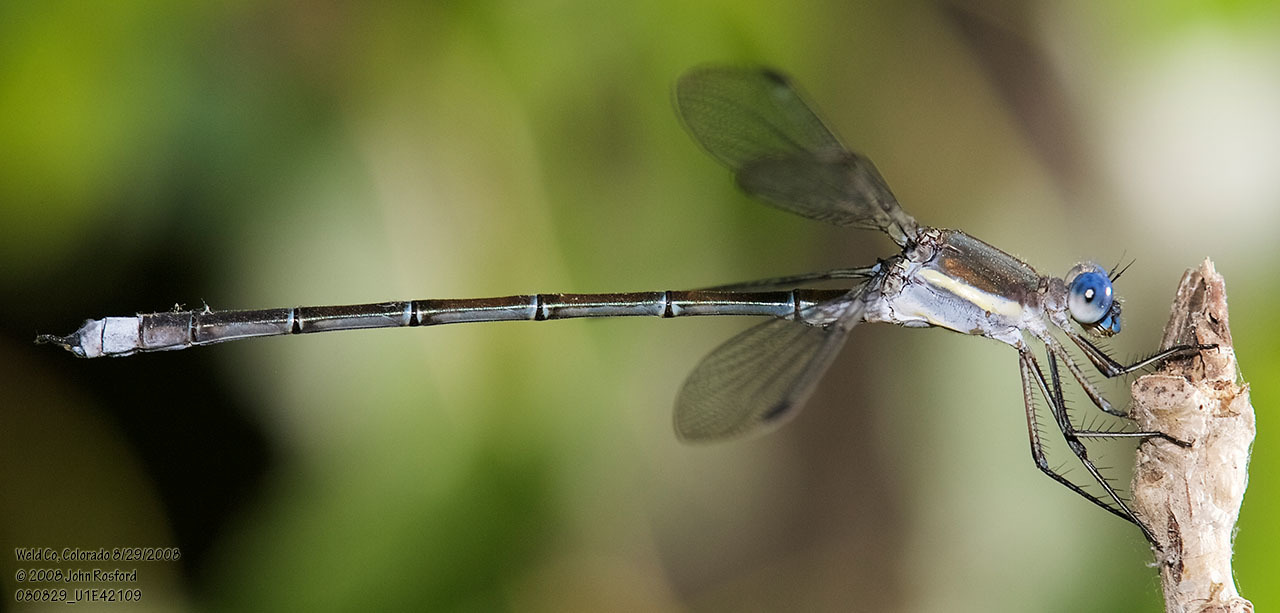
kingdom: Animalia
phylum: Arthropoda
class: Insecta
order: Odonata
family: Lestidae
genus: Archilestes
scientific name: Archilestes grandis
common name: Great spreadwing
